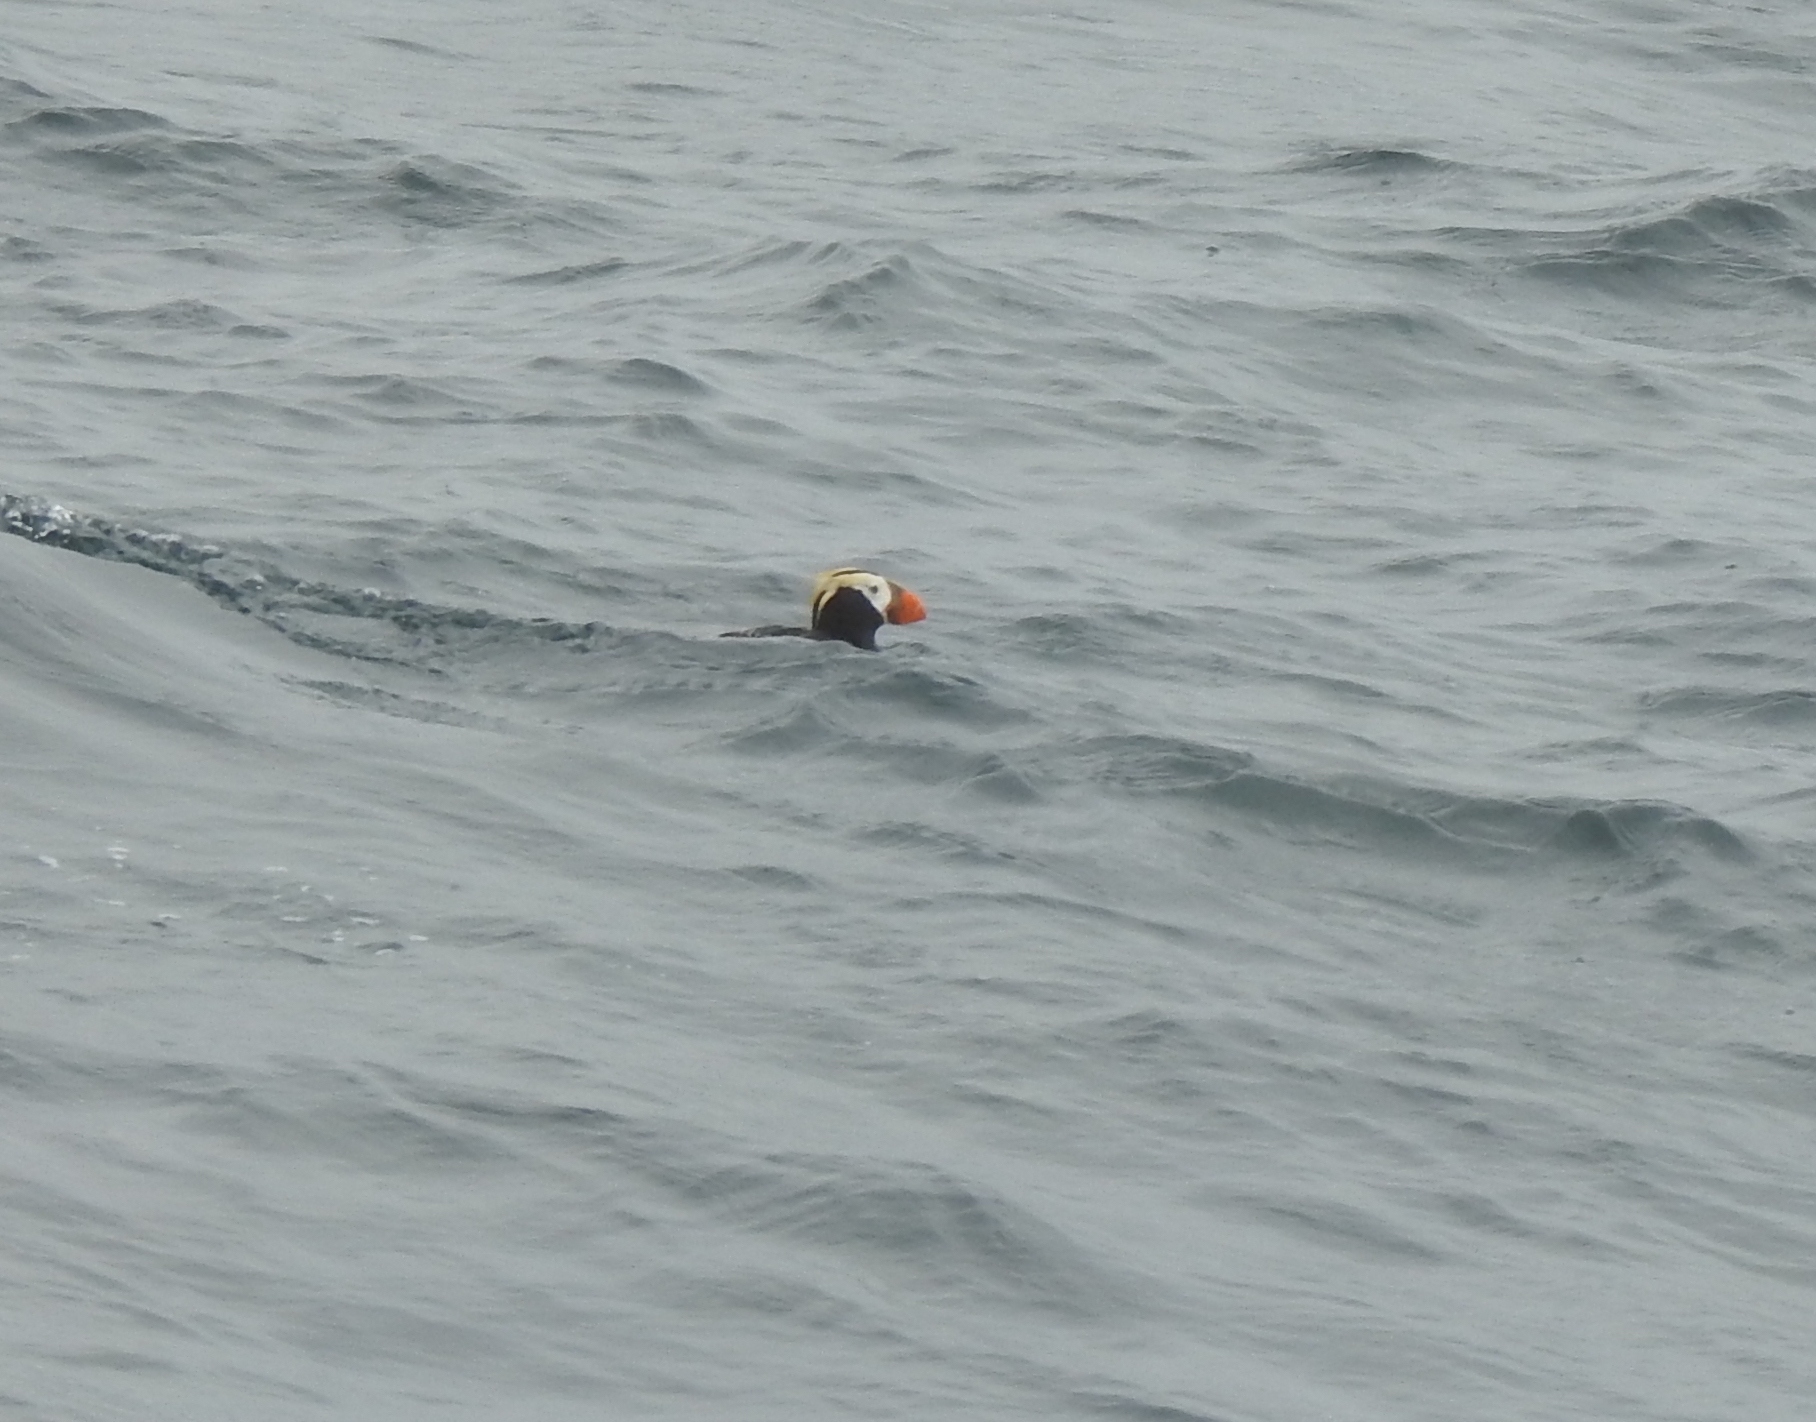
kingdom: Animalia
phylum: Chordata
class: Aves
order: Charadriiformes
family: Alcidae
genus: Fratercula
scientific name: Fratercula cirrhata
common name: Tufted puffin
